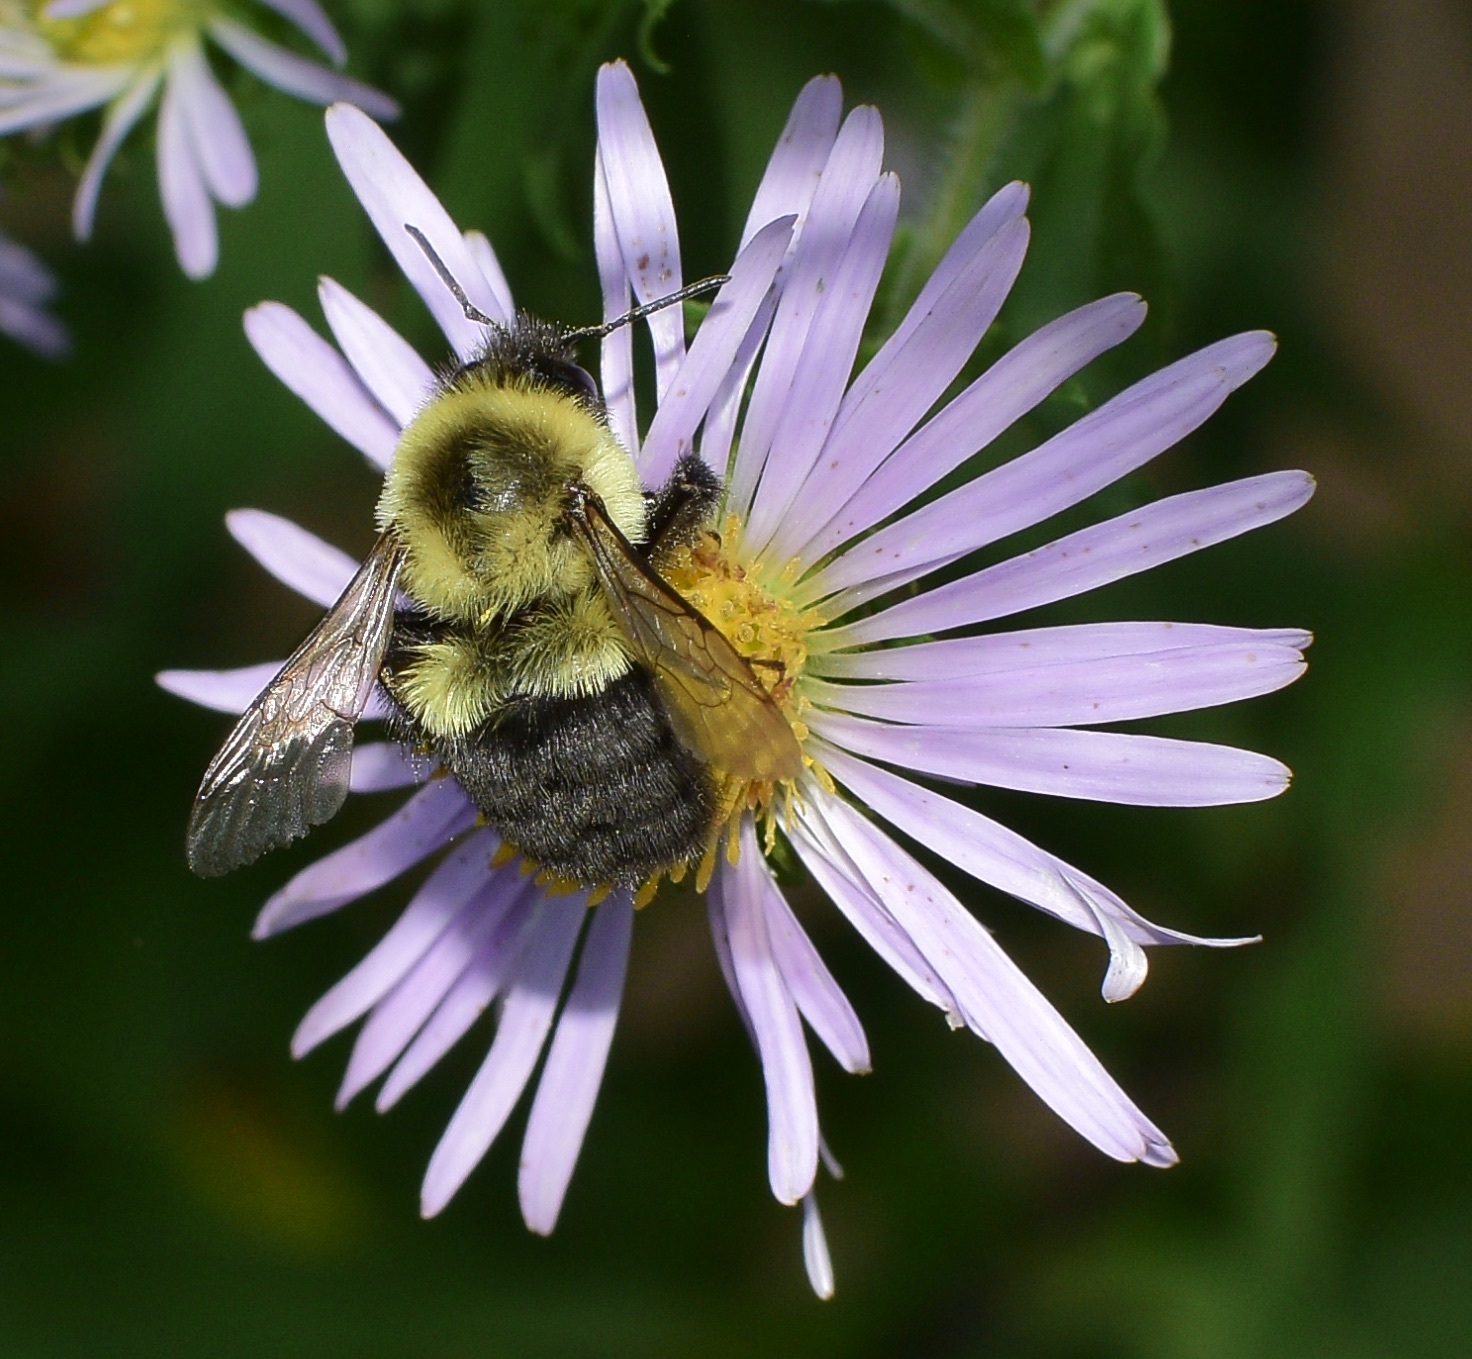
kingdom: Animalia
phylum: Arthropoda
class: Insecta
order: Hymenoptera
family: Apidae
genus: Bombus
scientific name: Bombus impatiens
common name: Common eastern bumble bee
